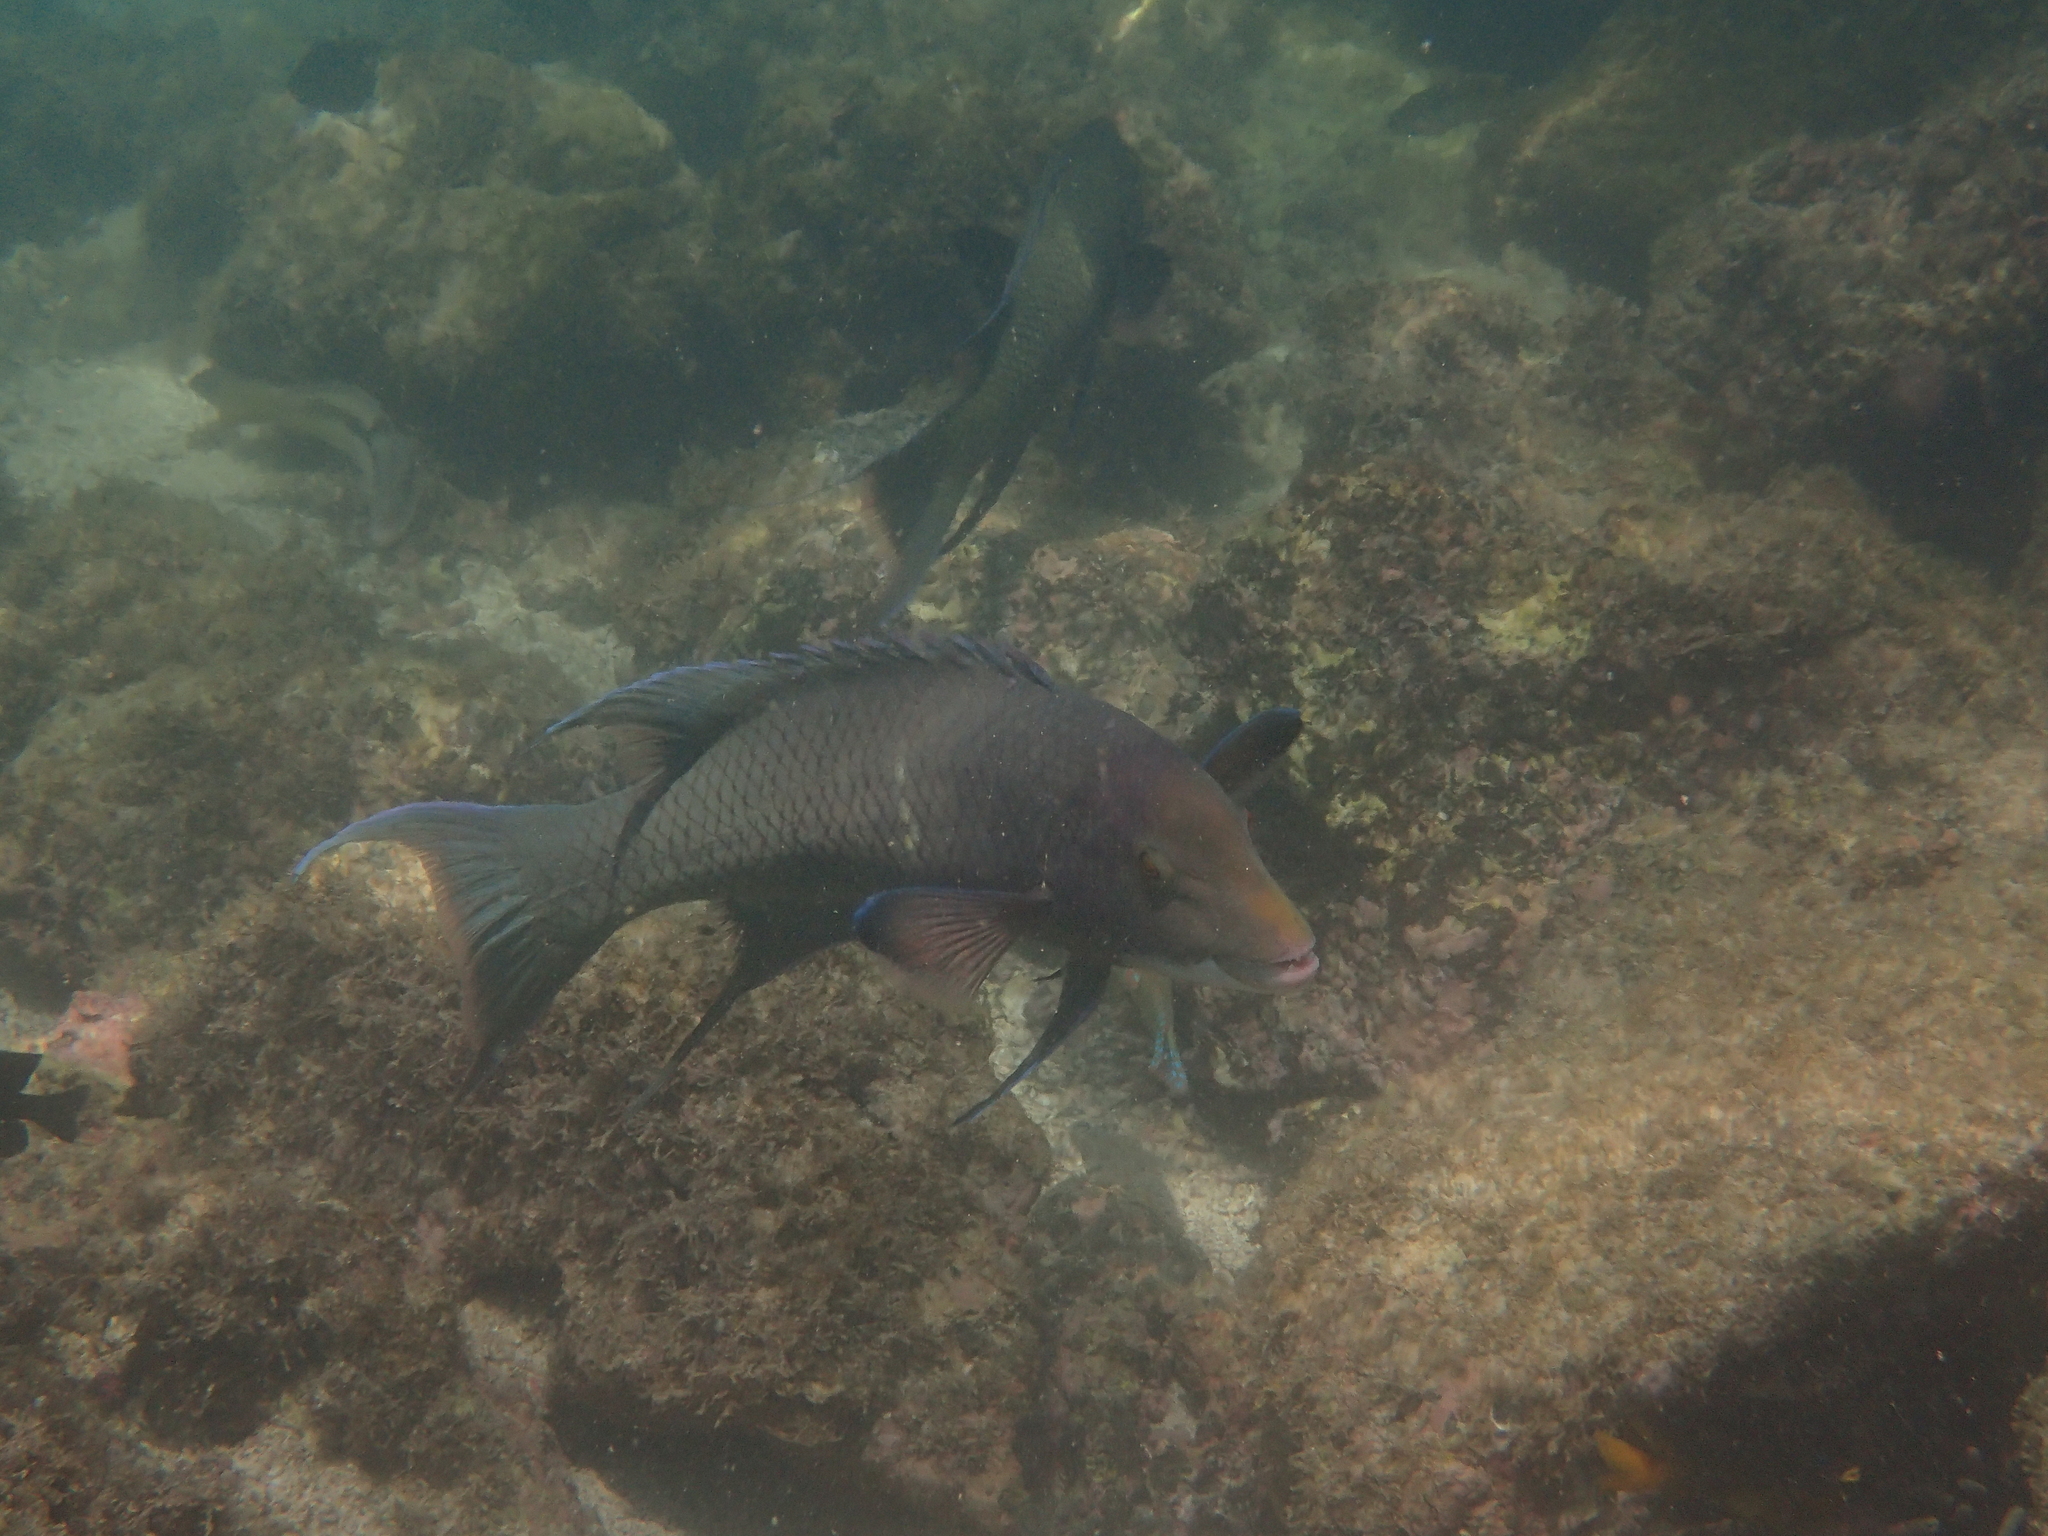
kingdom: Animalia
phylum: Chordata
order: Perciformes
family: Labridae
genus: Bodianus
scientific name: Bodianus diplotaenia
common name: Mexican hogfish
